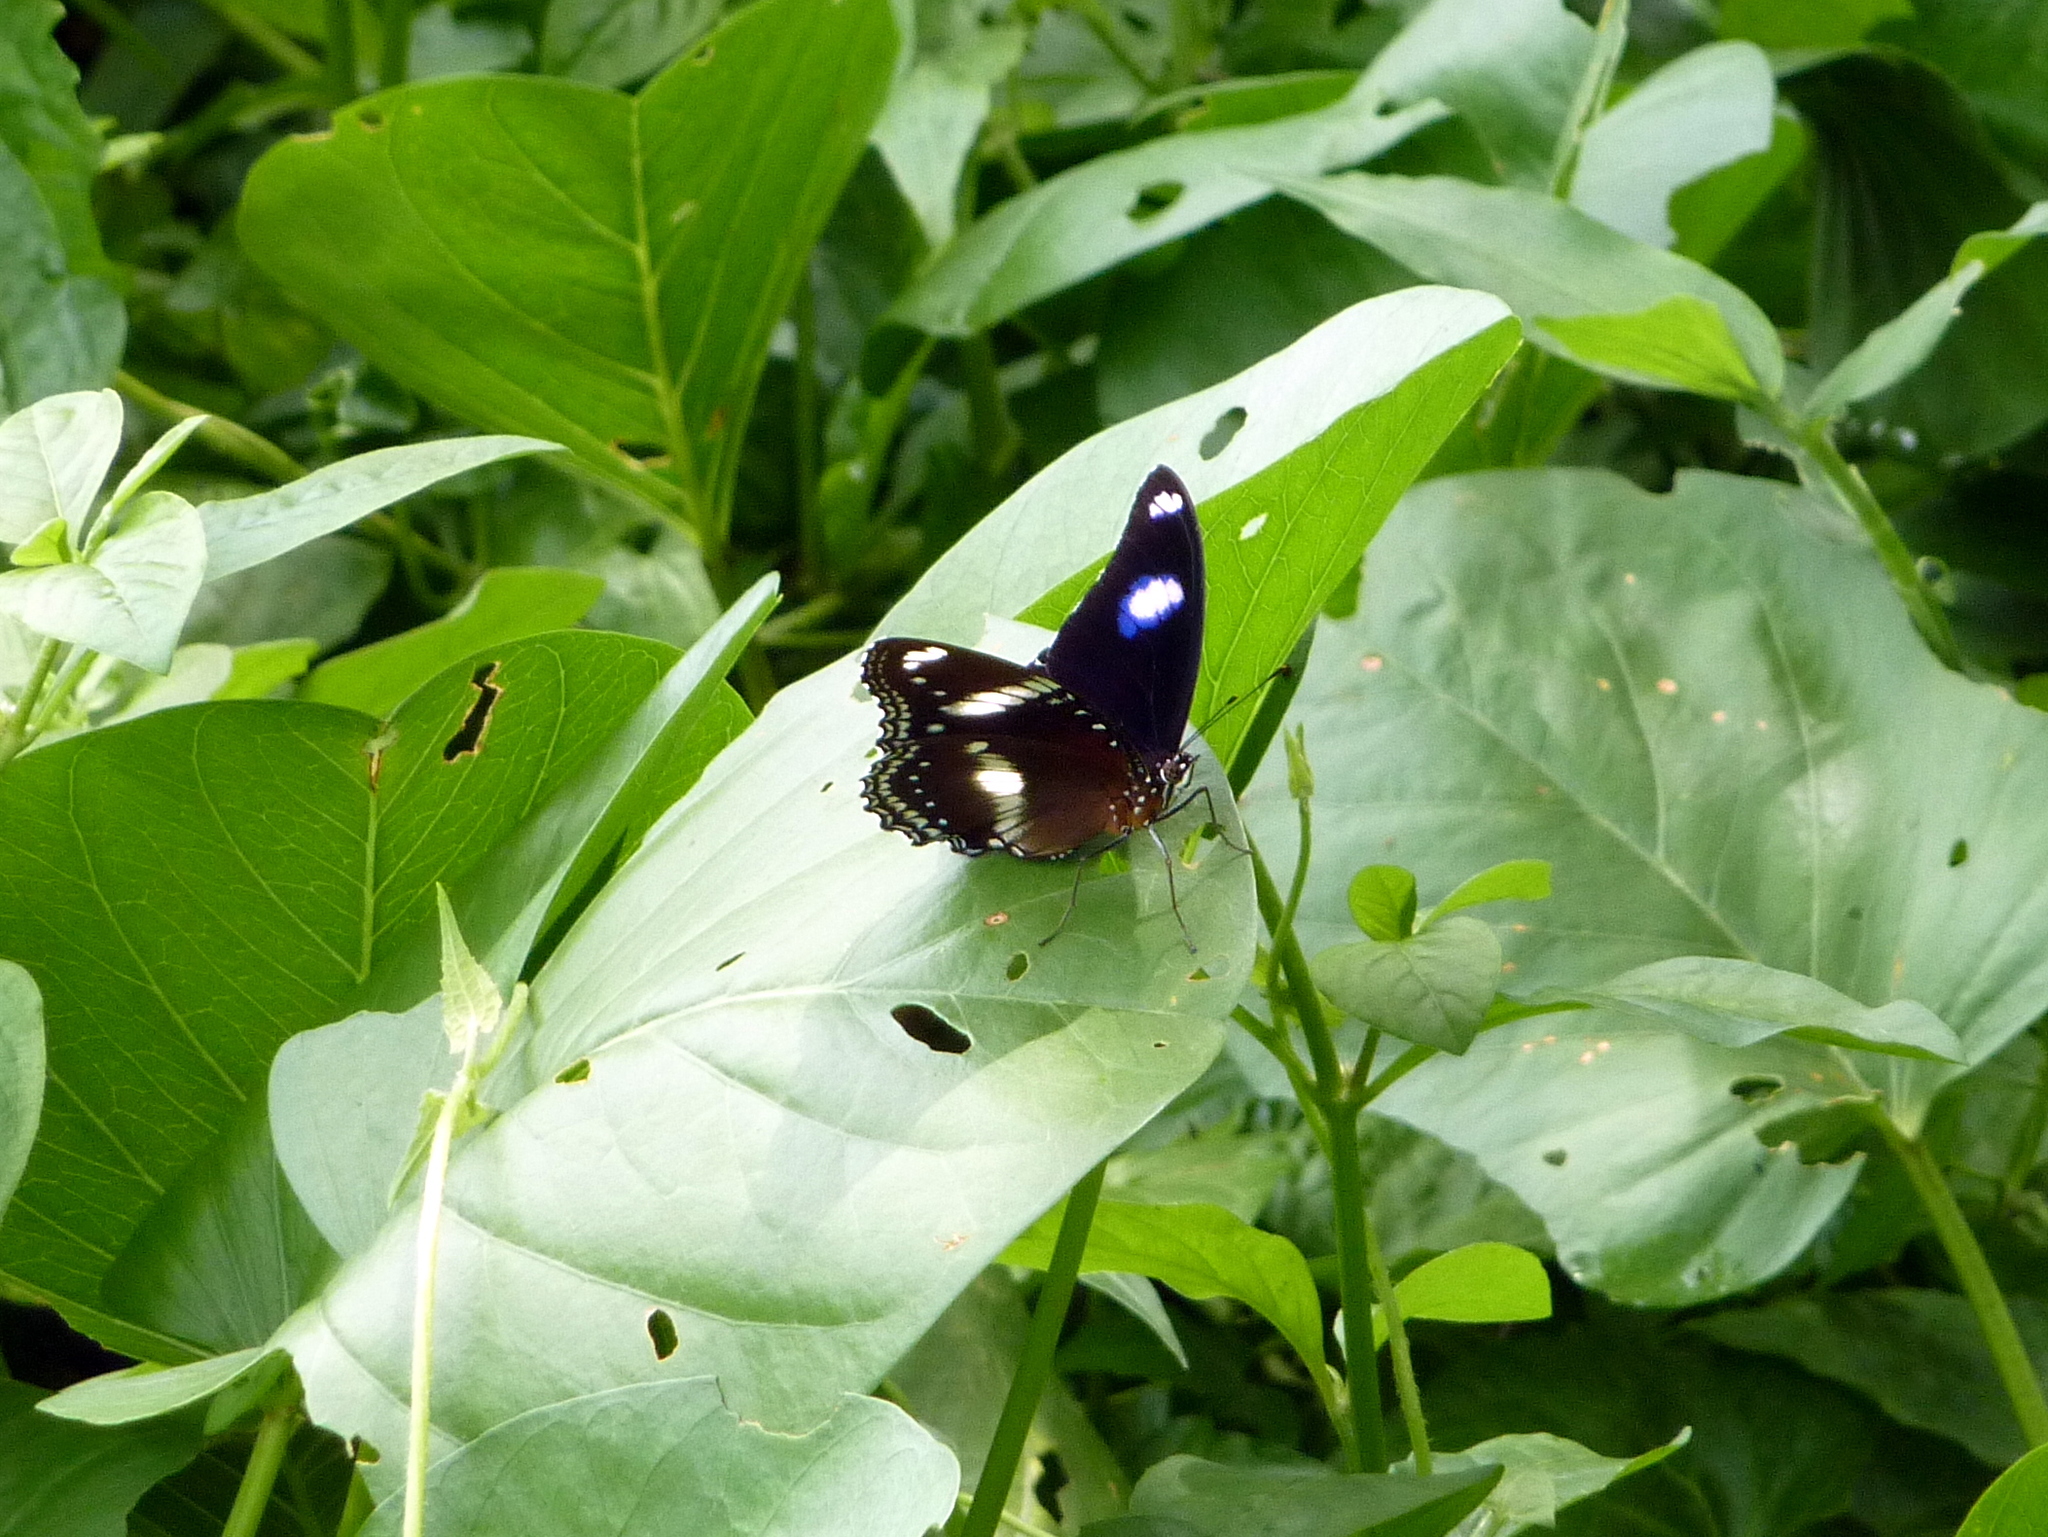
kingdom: Animalia
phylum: Arthropoda
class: Insecta
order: Lepidoptera
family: Nymphalidae
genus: Hypolimnas
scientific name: Hypolimnas bolina
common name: Great eggfly
